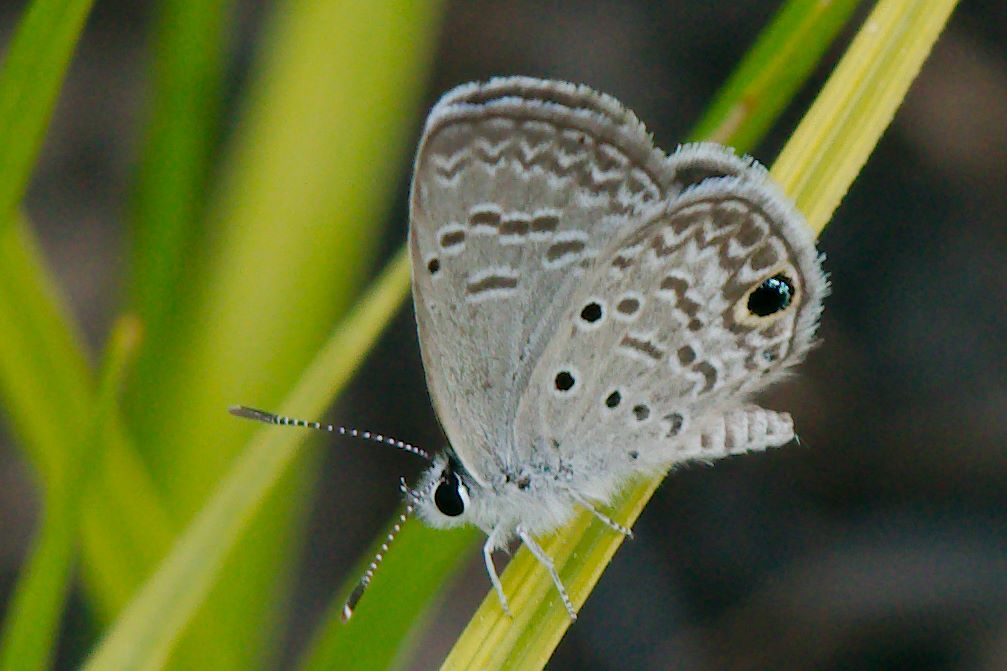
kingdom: Animalia
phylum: Arthropoda
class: Insecta
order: Lepidoptera
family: Lycaenidae
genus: Hemiargus
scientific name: Hemiargus ceraunus
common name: Ceraunus blue
